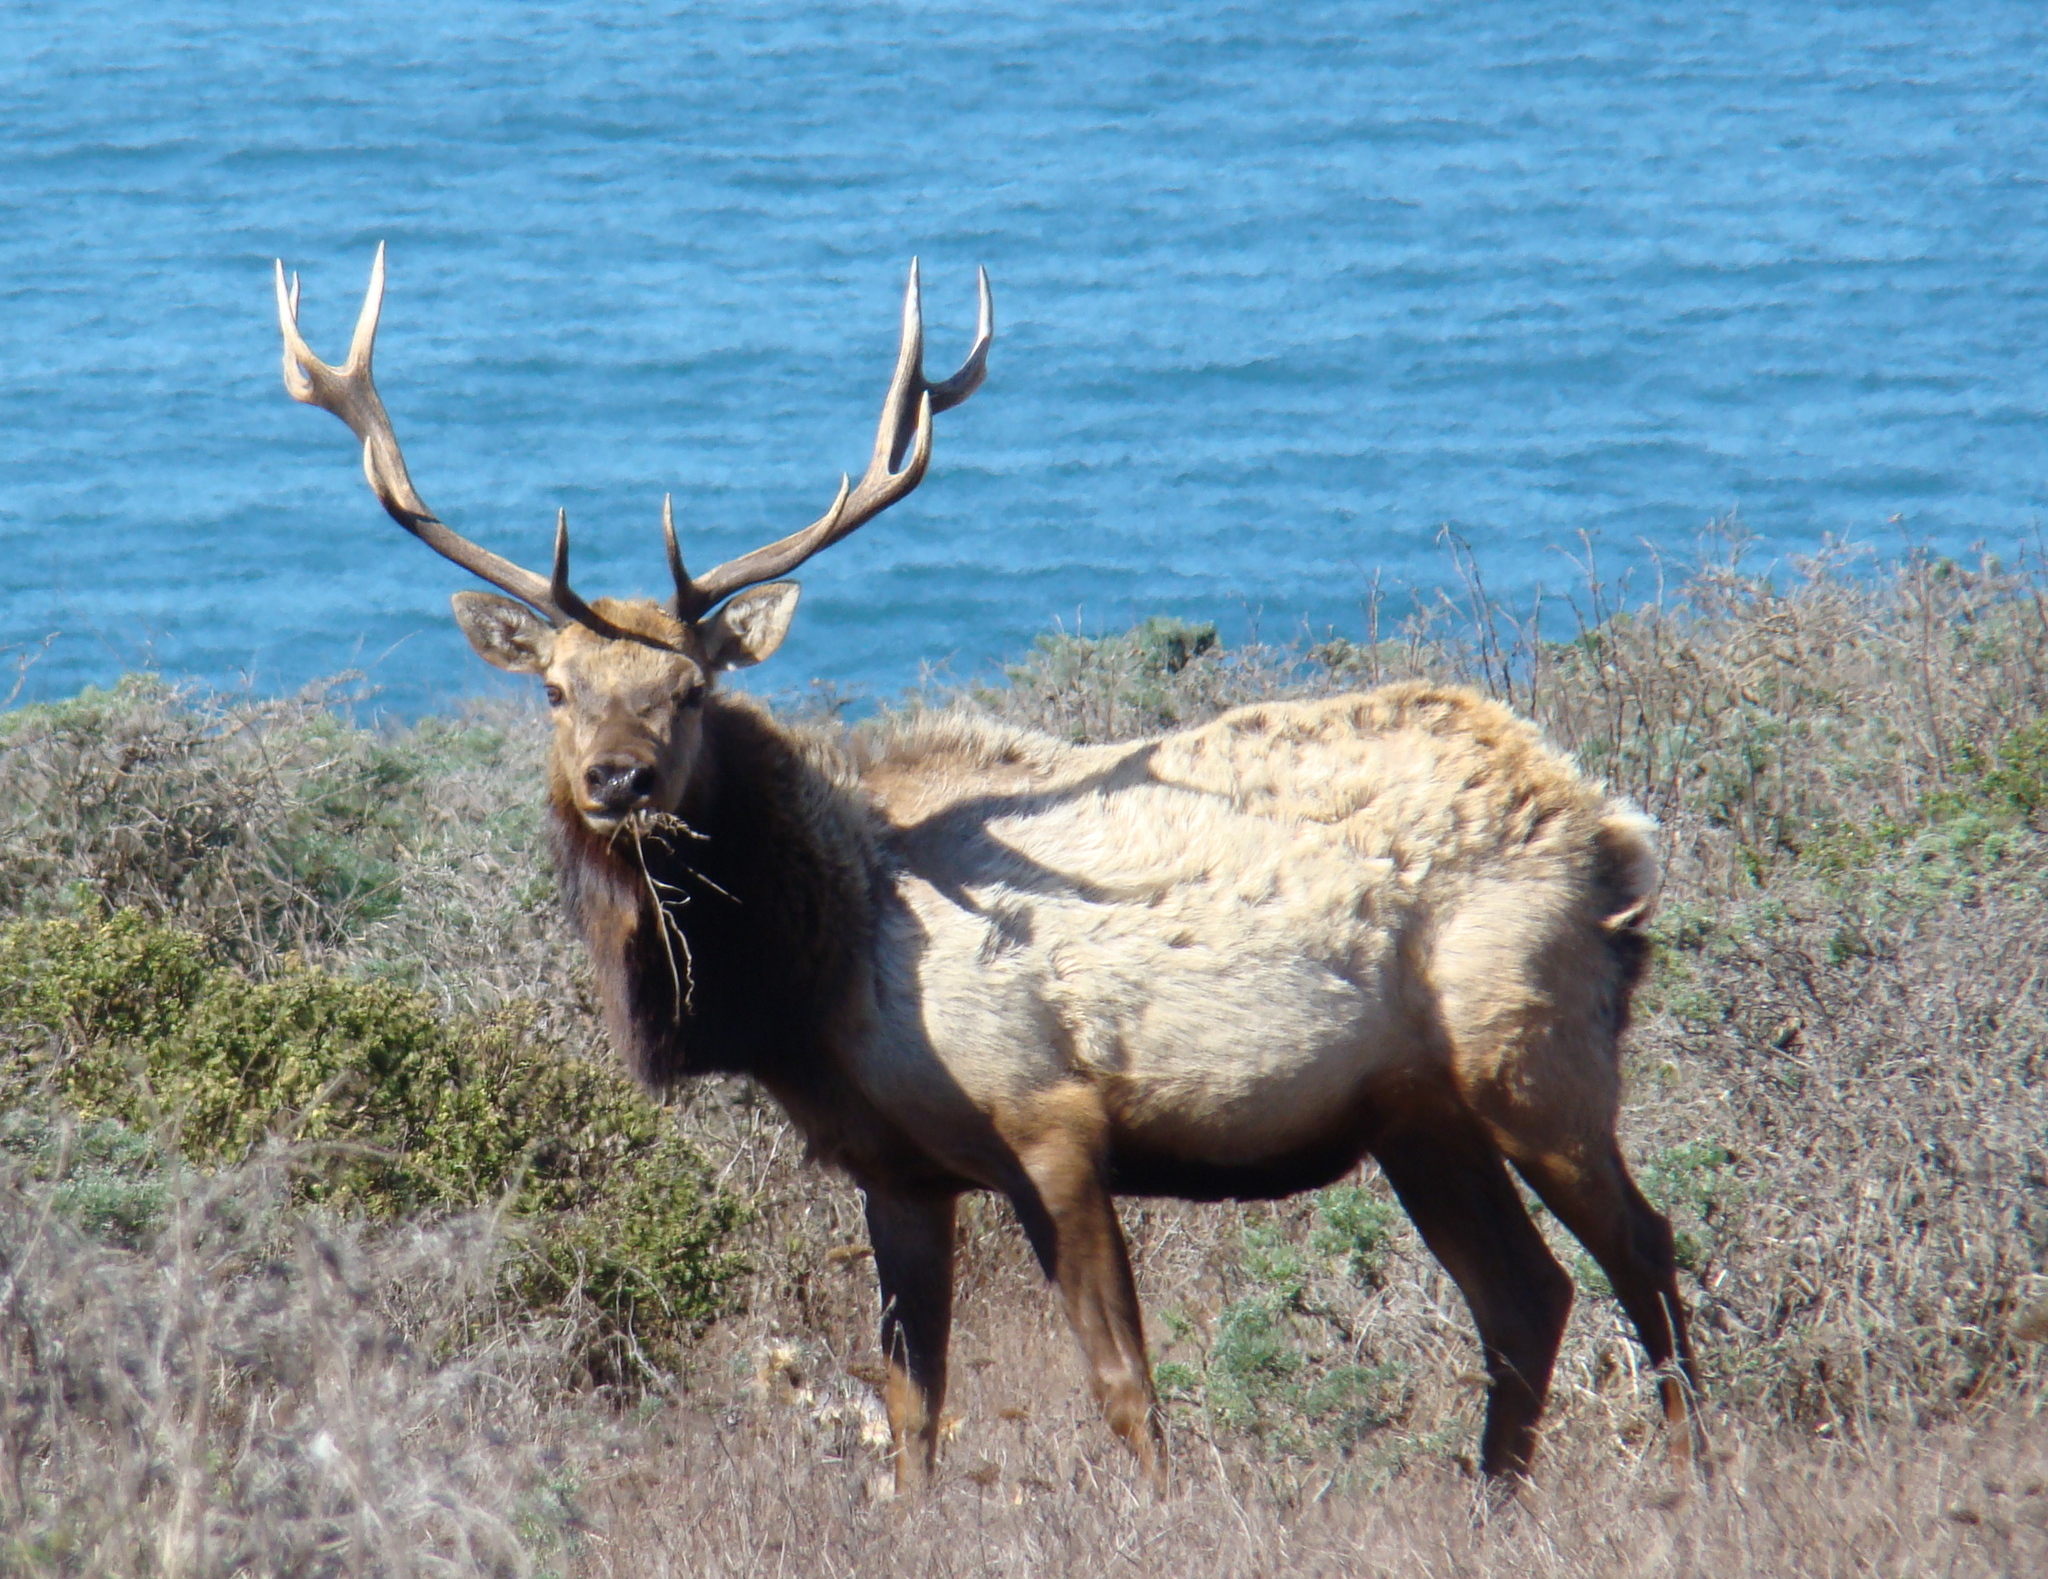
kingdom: Animalia
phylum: Chordata
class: Mammalia
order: Artiodactyla
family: Cervidae
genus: Cervus
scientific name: Cervus elaphus
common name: Red deer
